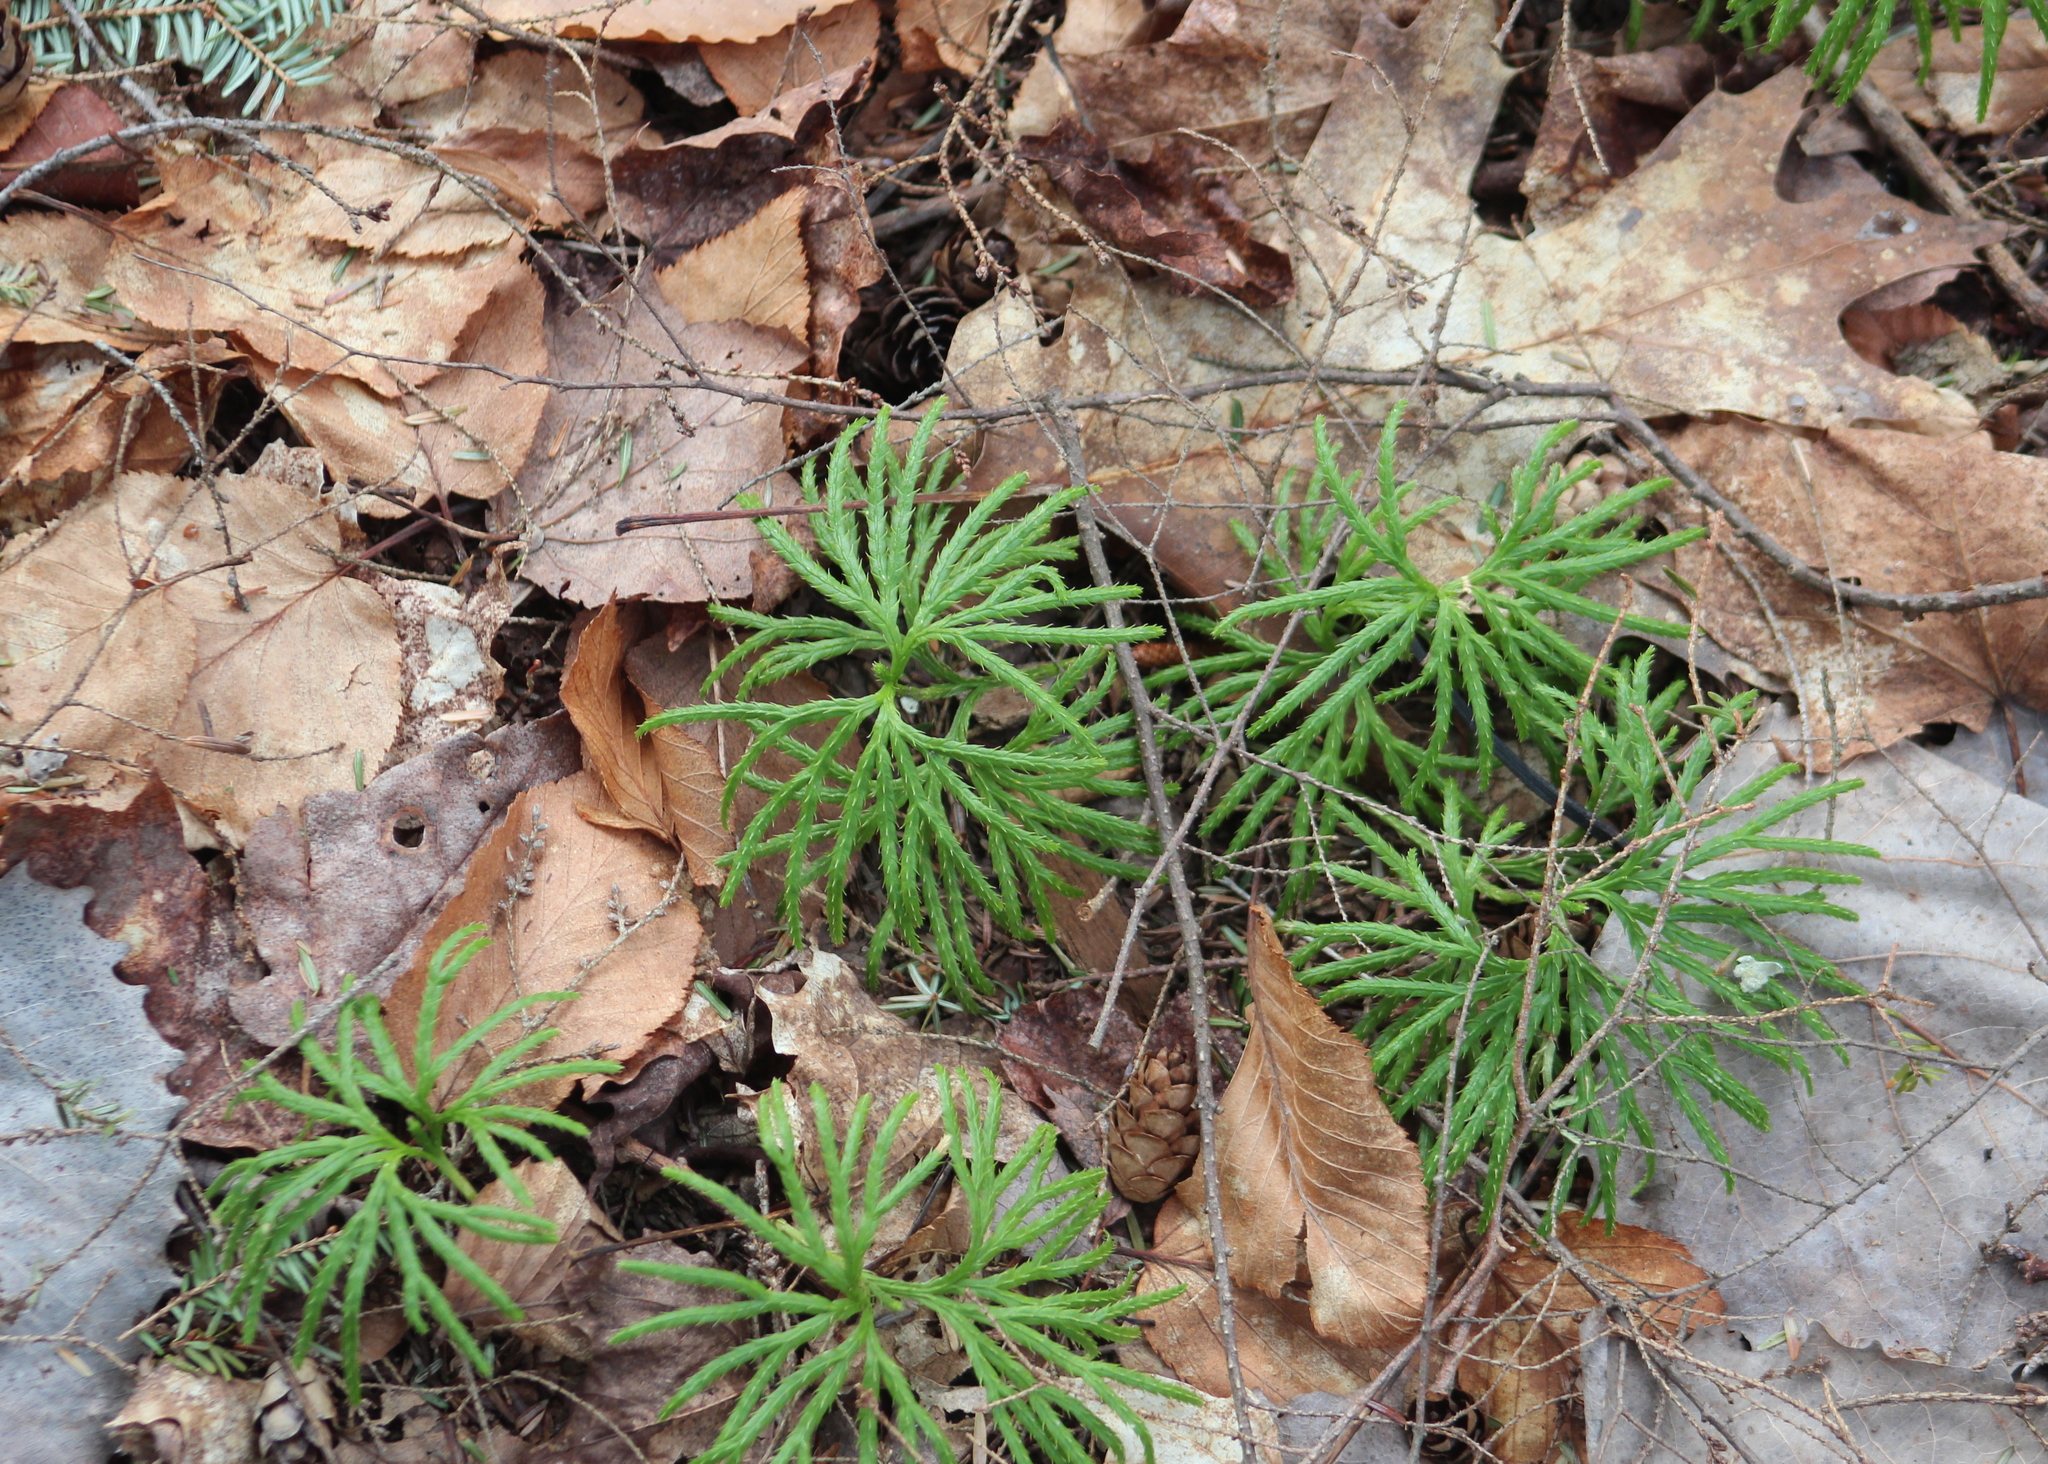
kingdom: Plantae
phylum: Tracheophyta
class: Lycopodiopsida
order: Lycopodiales
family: Lycopodiaceae
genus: Diphasiastrum
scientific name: Diphasiastrum digitatum
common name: Southern running-pine
